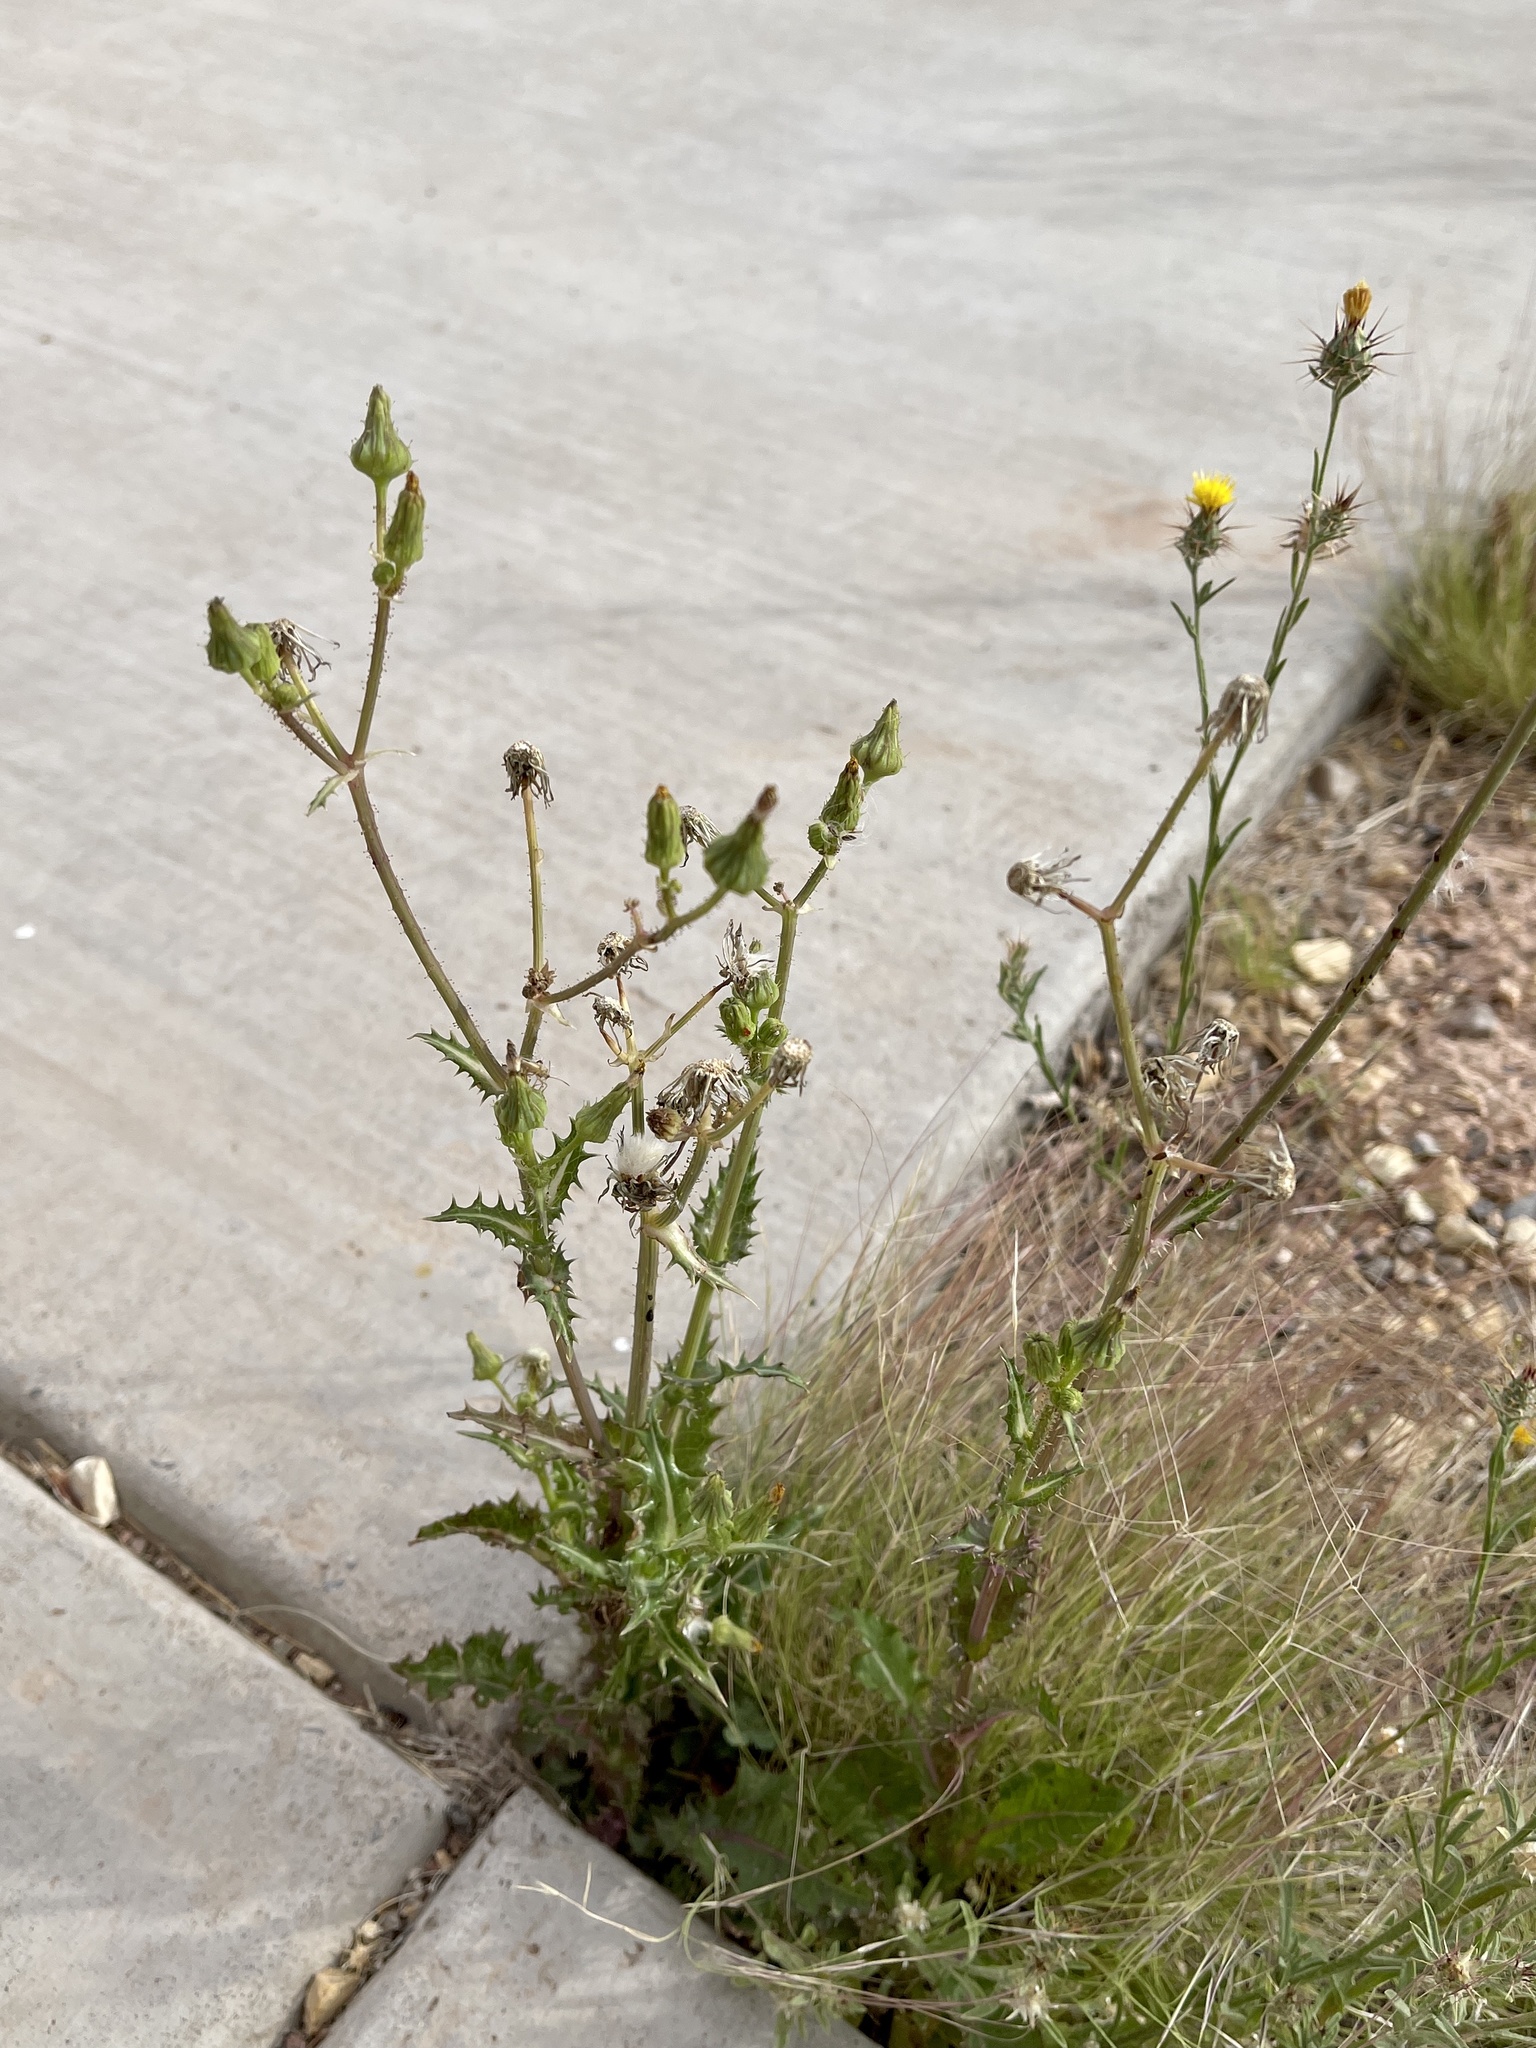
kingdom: Plantae
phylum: Tracheophyta
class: Magnoliopsida
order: Asterales
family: Asteraceae
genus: Centaurea
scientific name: Centaurea melitensis
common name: Maltese star-thistle
